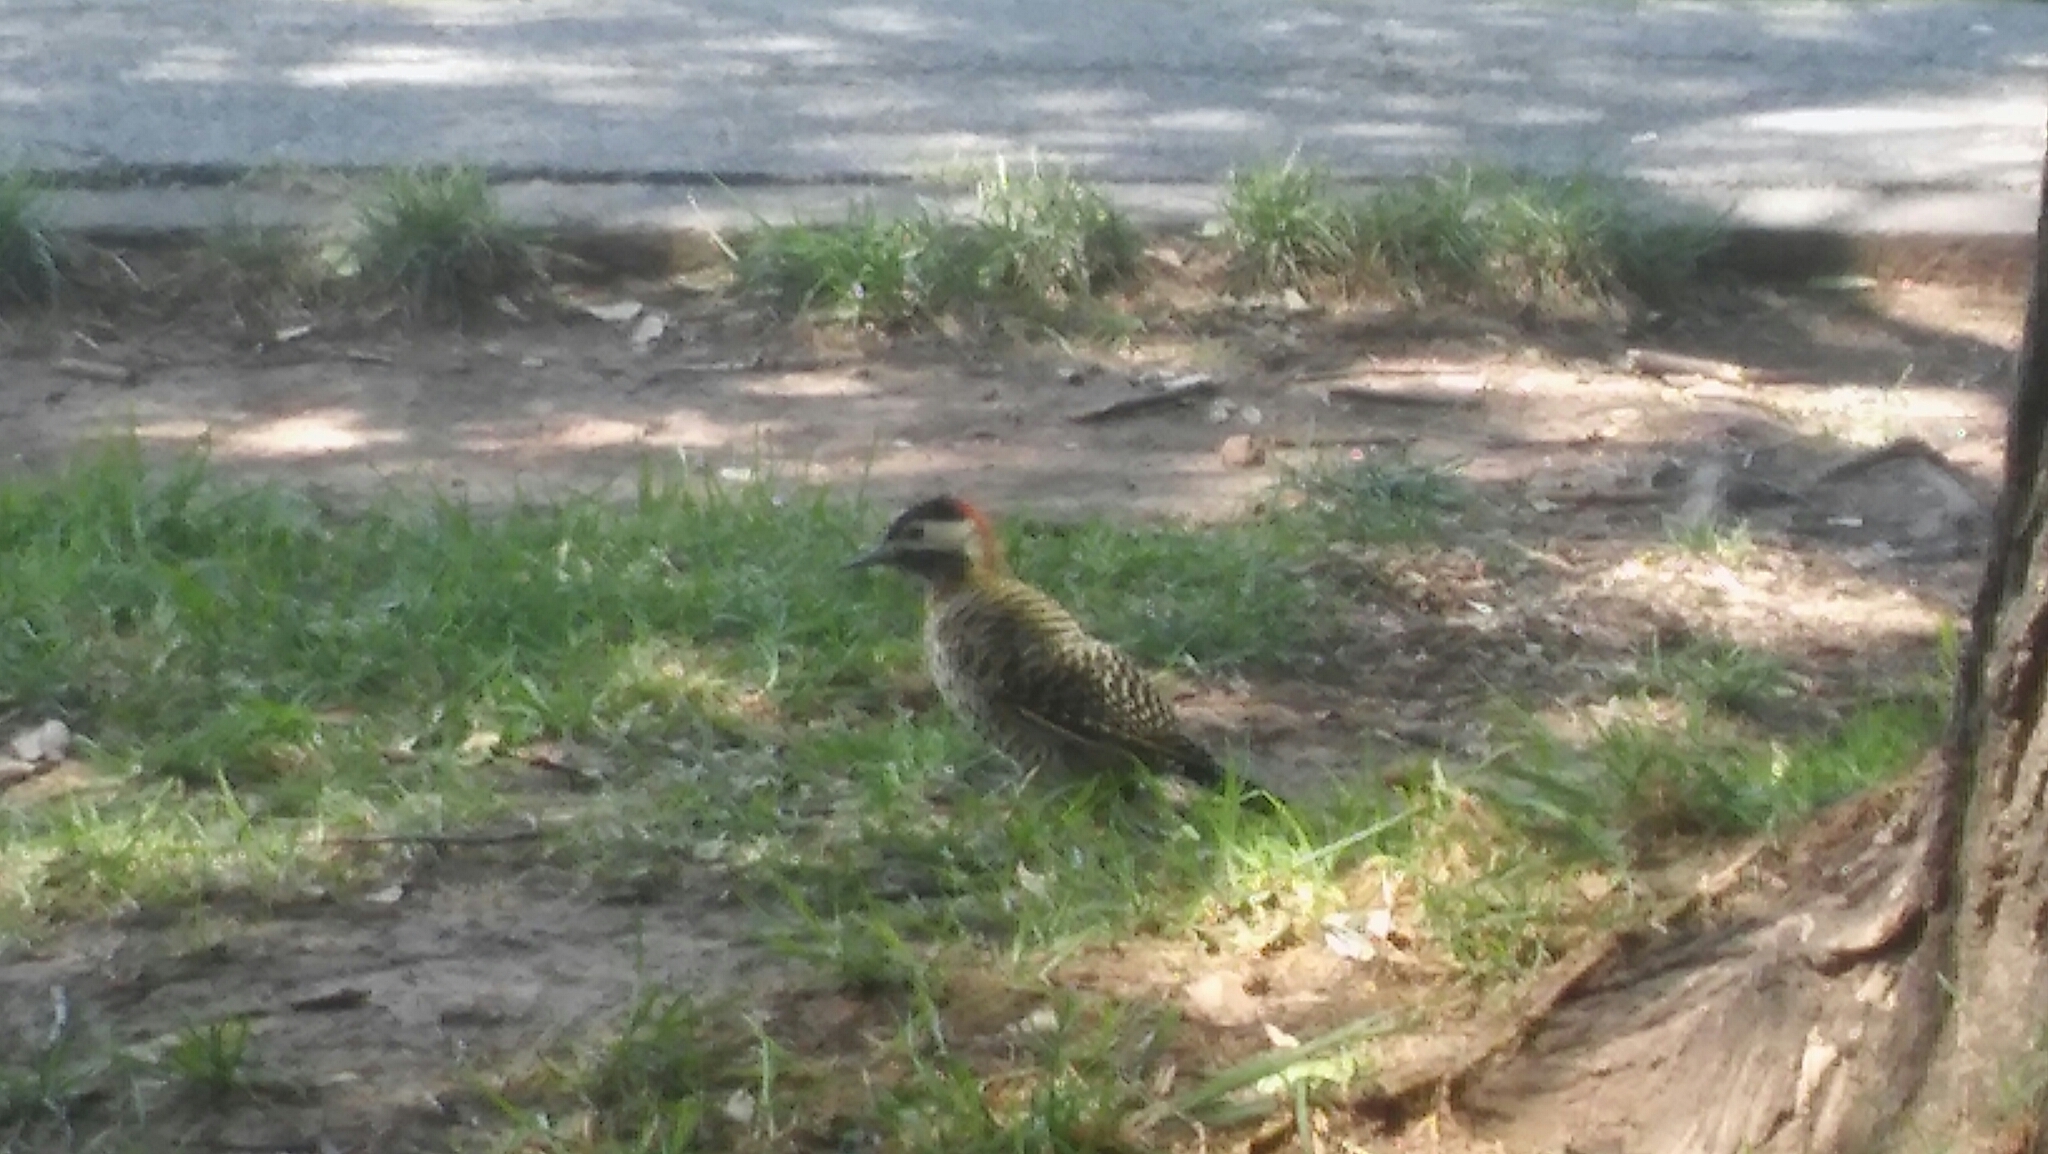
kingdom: Animalia
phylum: Chordata
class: Aves
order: Piciformes
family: Picidae
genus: Colaptes
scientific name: Colaptes melanochloros
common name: Green-barred woodpecker
